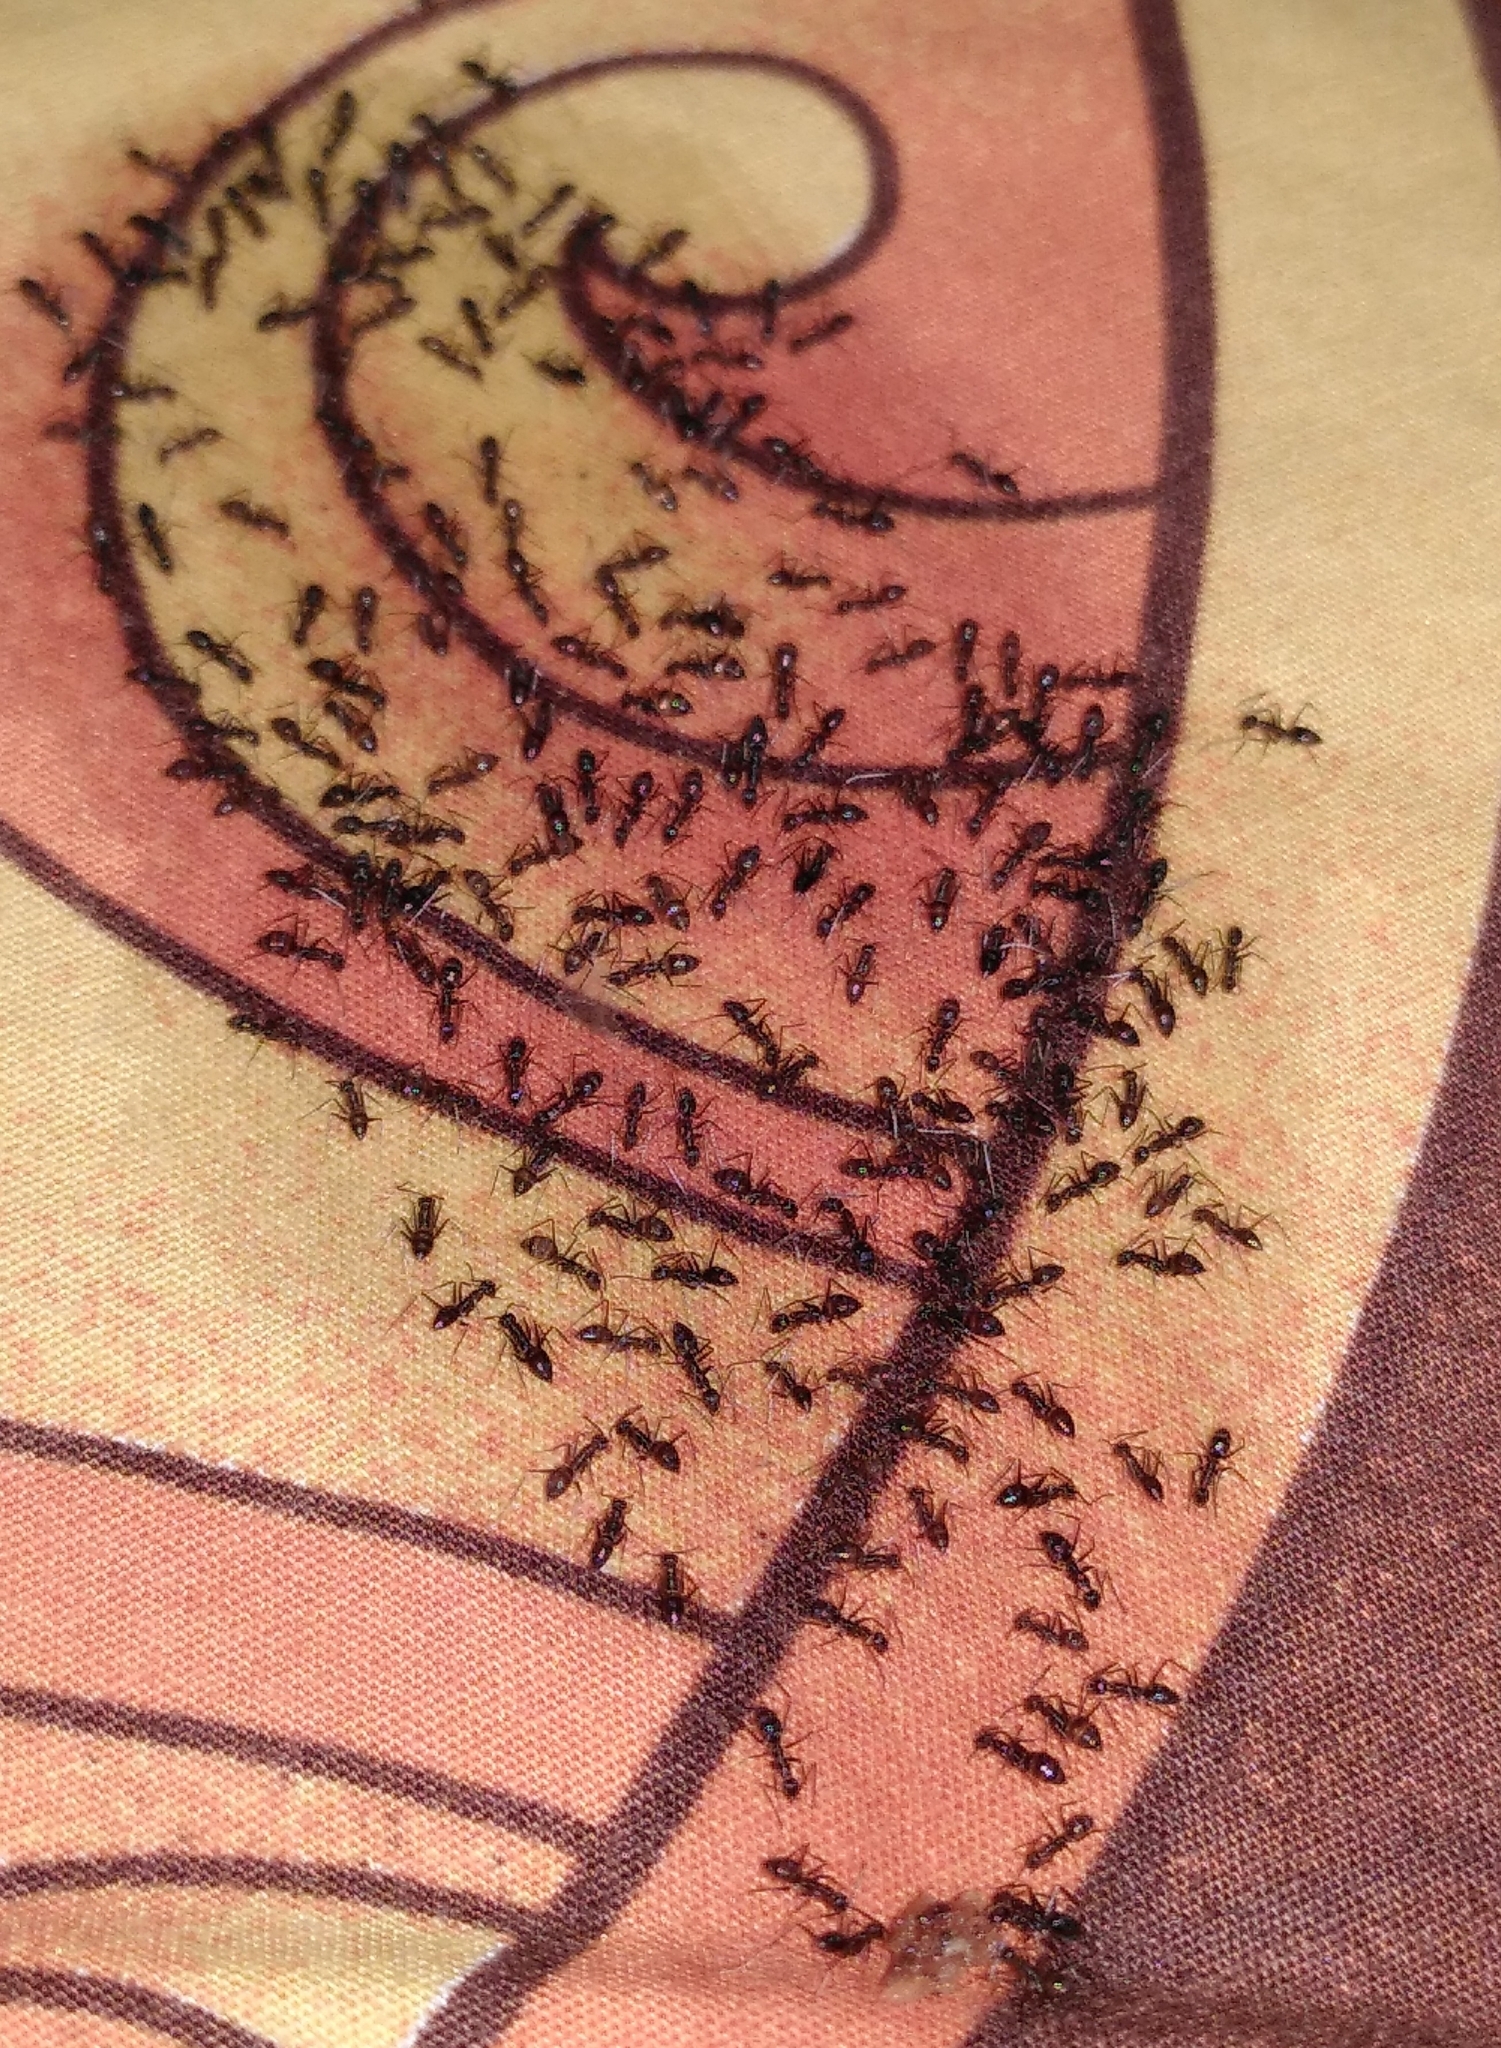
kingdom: Animalia
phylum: Arthropoda
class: Insecta
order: Hymenoptera
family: Formicidae
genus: Paratrechina
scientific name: Paratrechina longicornis
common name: Longhorned crazy ant
